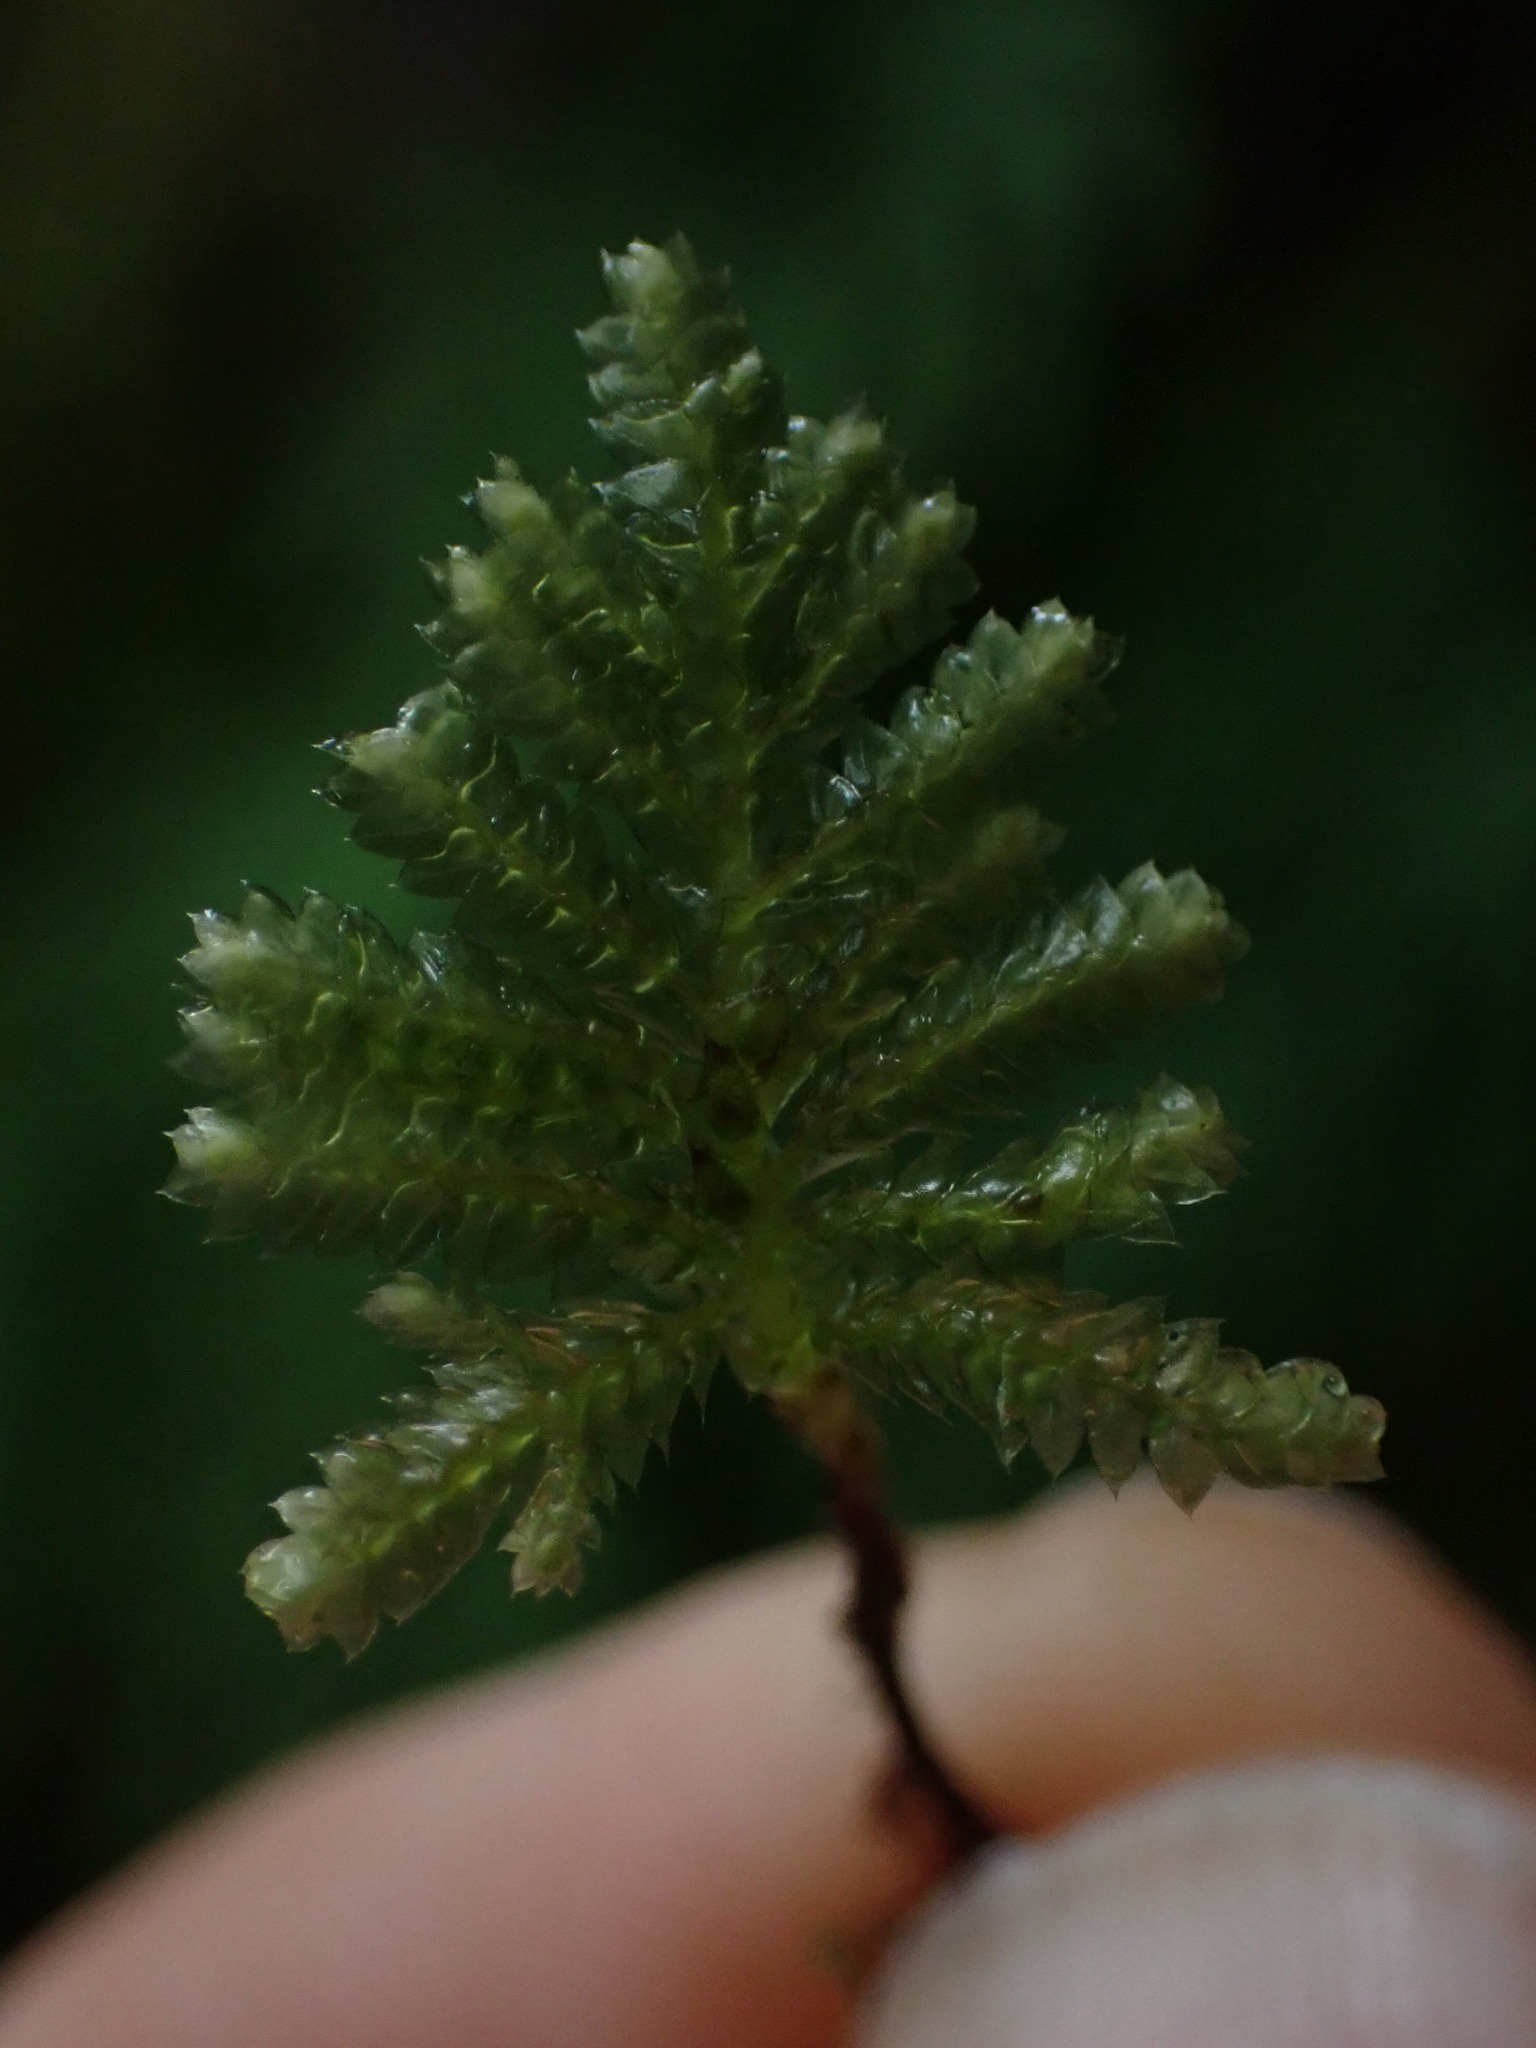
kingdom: Plantae
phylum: Bryophyta
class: Bryopsida
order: Hypopterygiales
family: Hypopterygiaceae
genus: Hypopterygium
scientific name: Hypopterygium flavolimbatum
